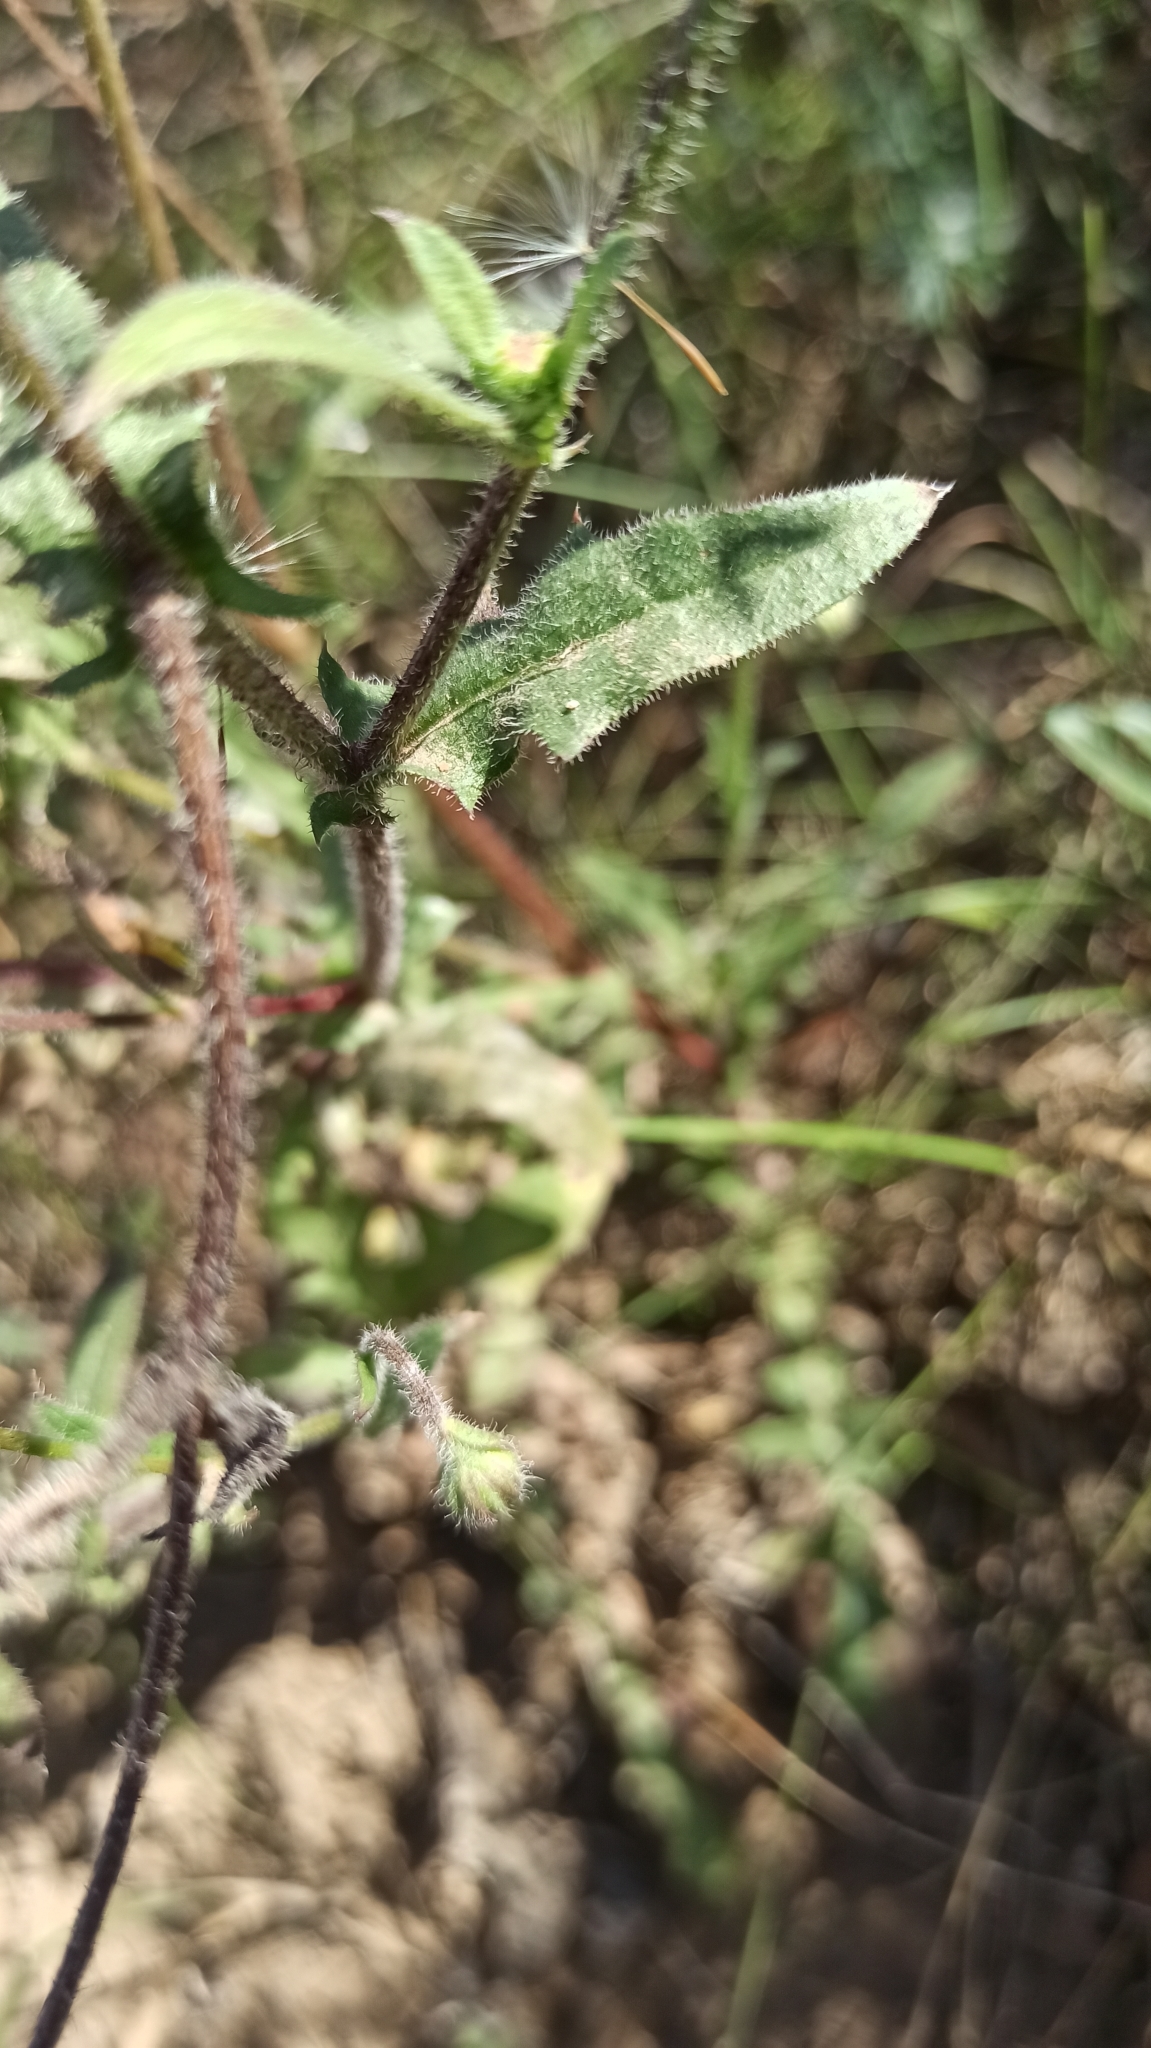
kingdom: Plantae
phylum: Tracheophyta
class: Magnoliopsida
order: Asterales
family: Asteraceae
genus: Crepis
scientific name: Crepis foetida
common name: Stinking hawk's-beard
